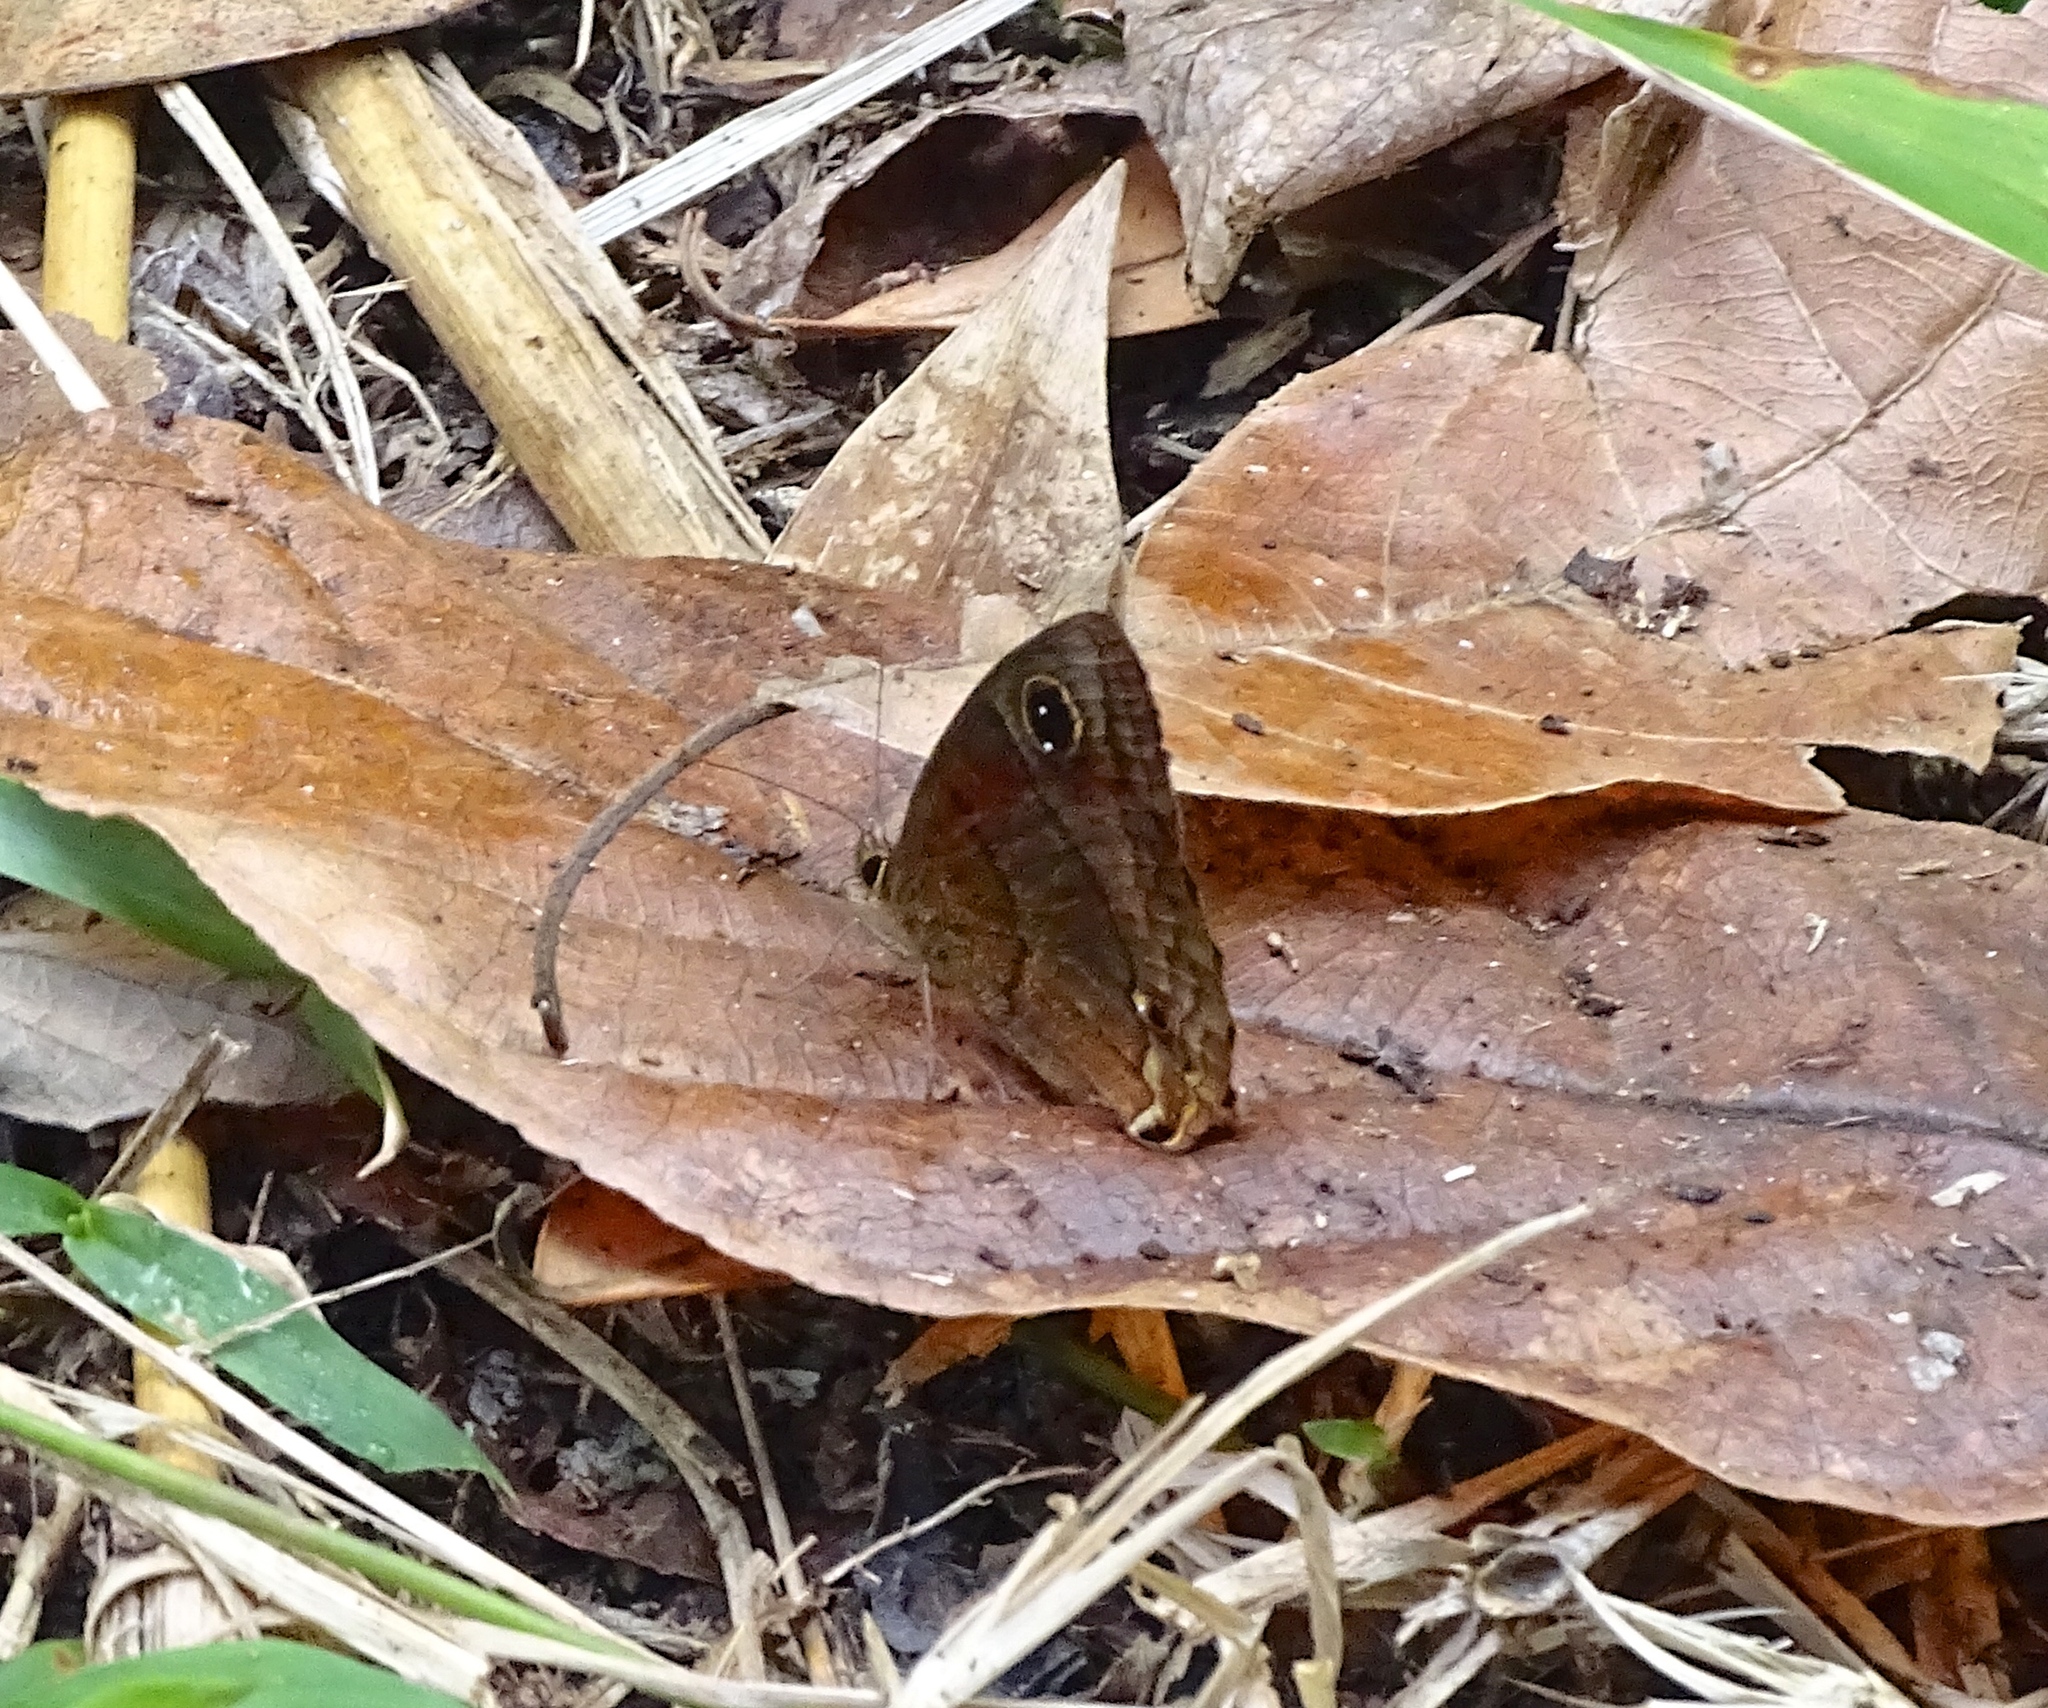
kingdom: Animalia
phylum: Arthropoda
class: Insecta
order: Lepidoptera
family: Nymphalidae
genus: Calisto
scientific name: Calisto nubila
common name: Puerto rican calisto
